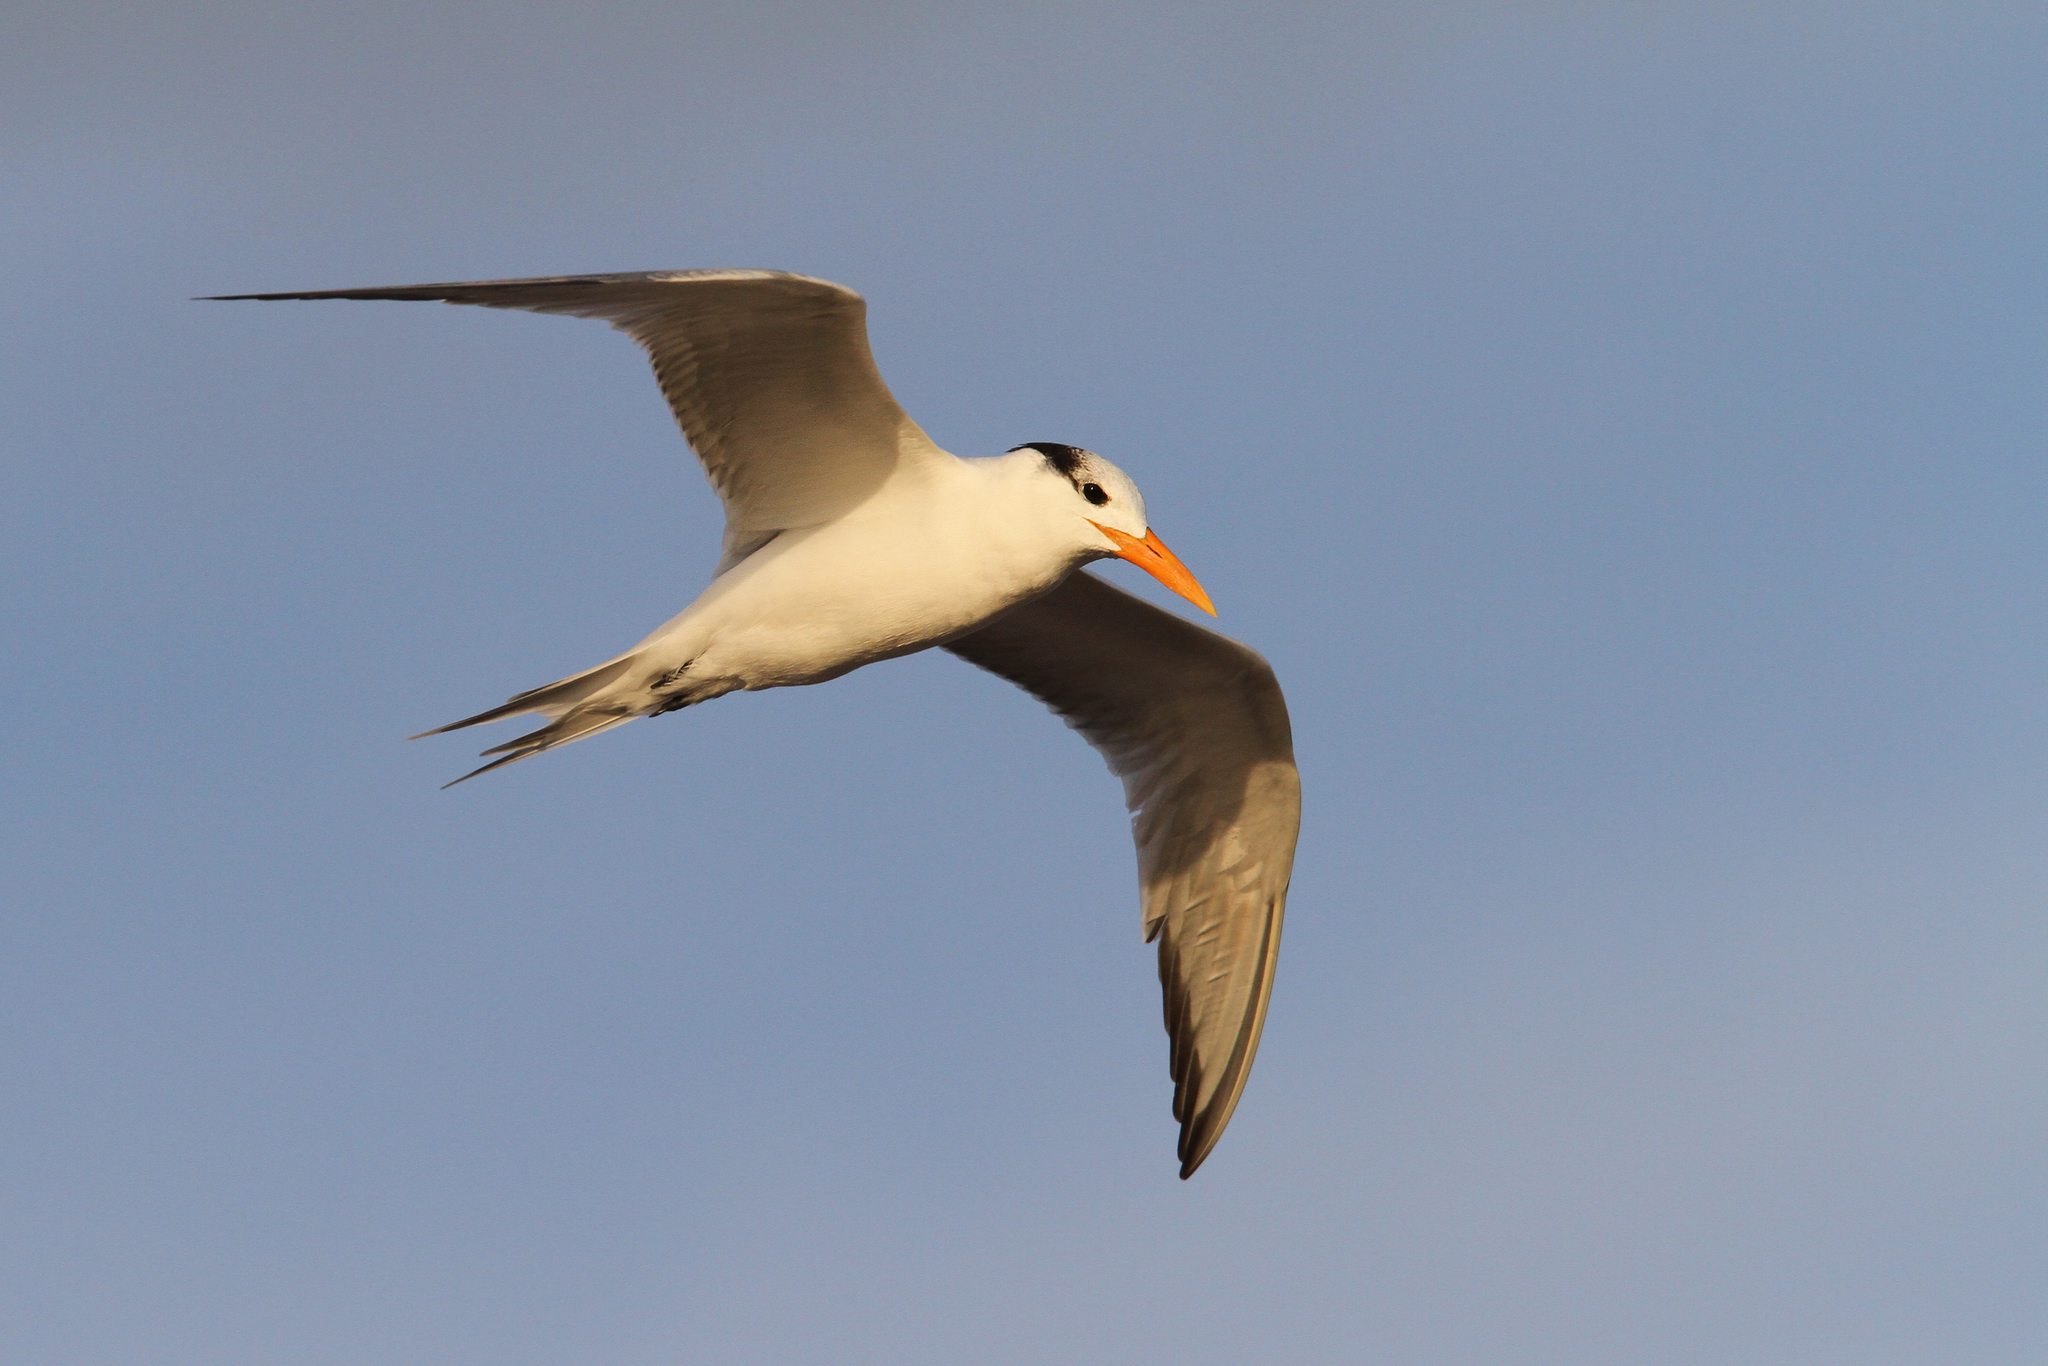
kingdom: Animalia
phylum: Chordata
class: Aves
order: Charadriiformes
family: Laridae
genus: Thalasseus
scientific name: Thalasseus maximus
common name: Royal tern
